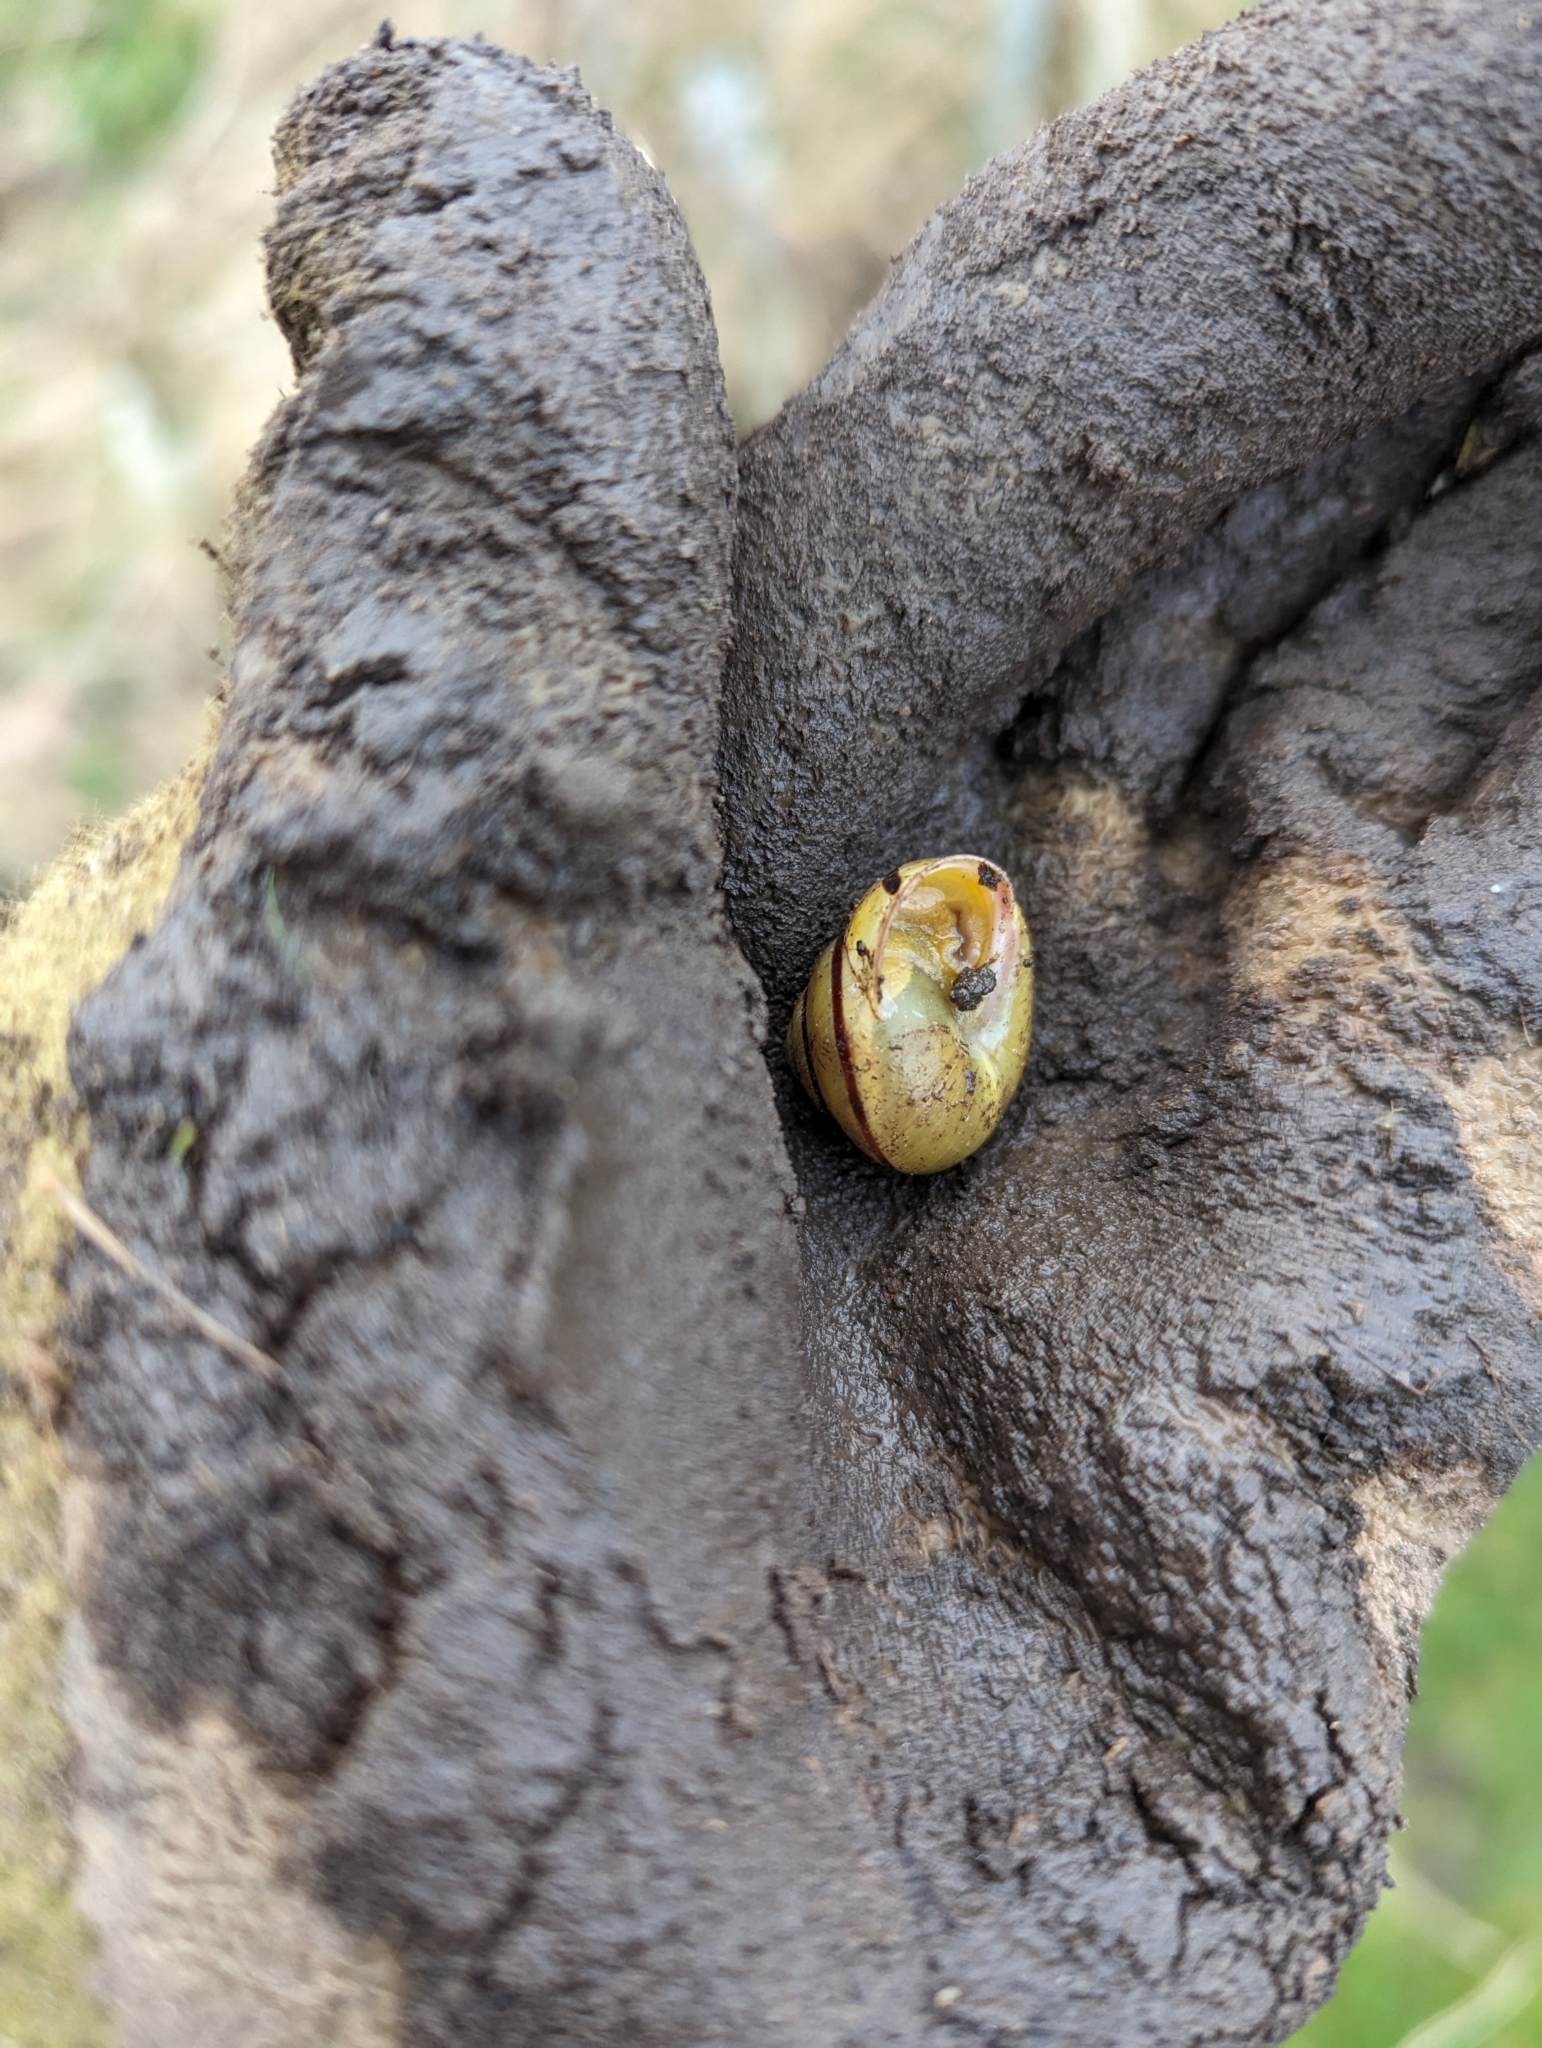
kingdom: Animalia
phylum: Mollusca
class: Gastropoda
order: Stylommatophora
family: Helicidae
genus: Cepaea
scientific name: Cepaea hortensis
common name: White-lip gardensnail
